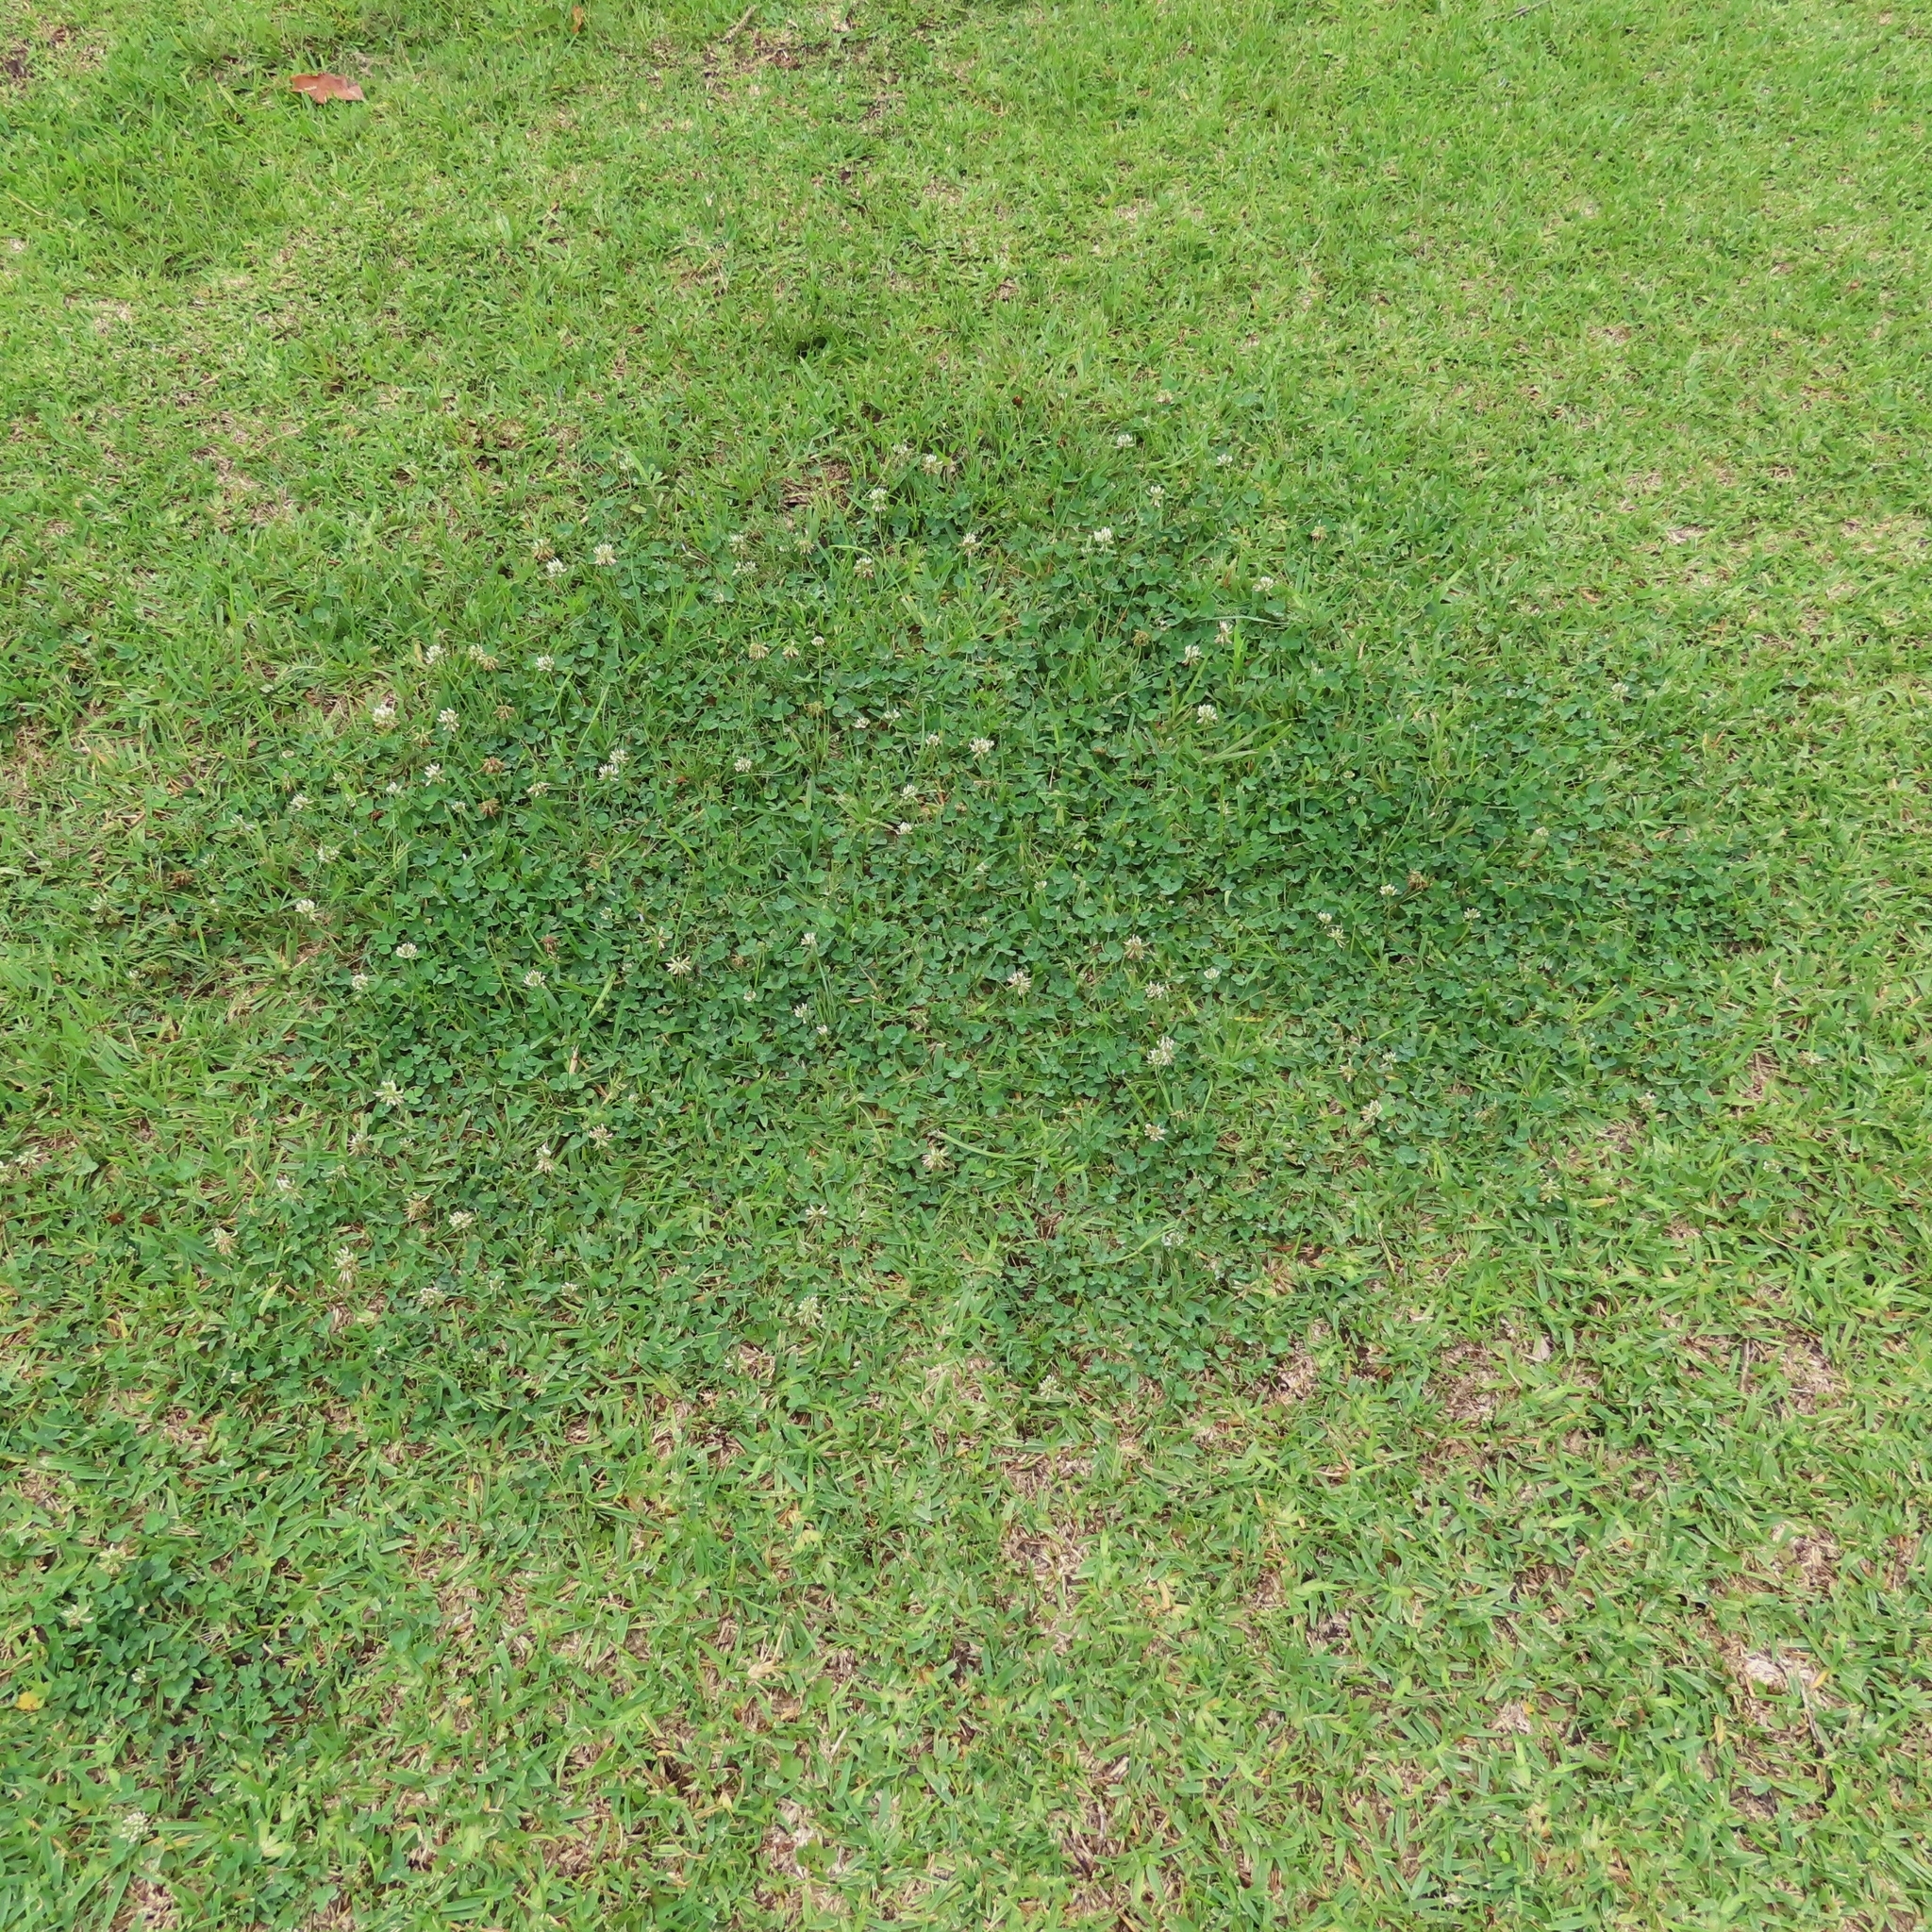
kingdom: Plantae
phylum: Tracheophyta
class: Magnoliopsida
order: Fabales
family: Fabaceae
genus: Trifolium
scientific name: Trifolium repens
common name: White clover
